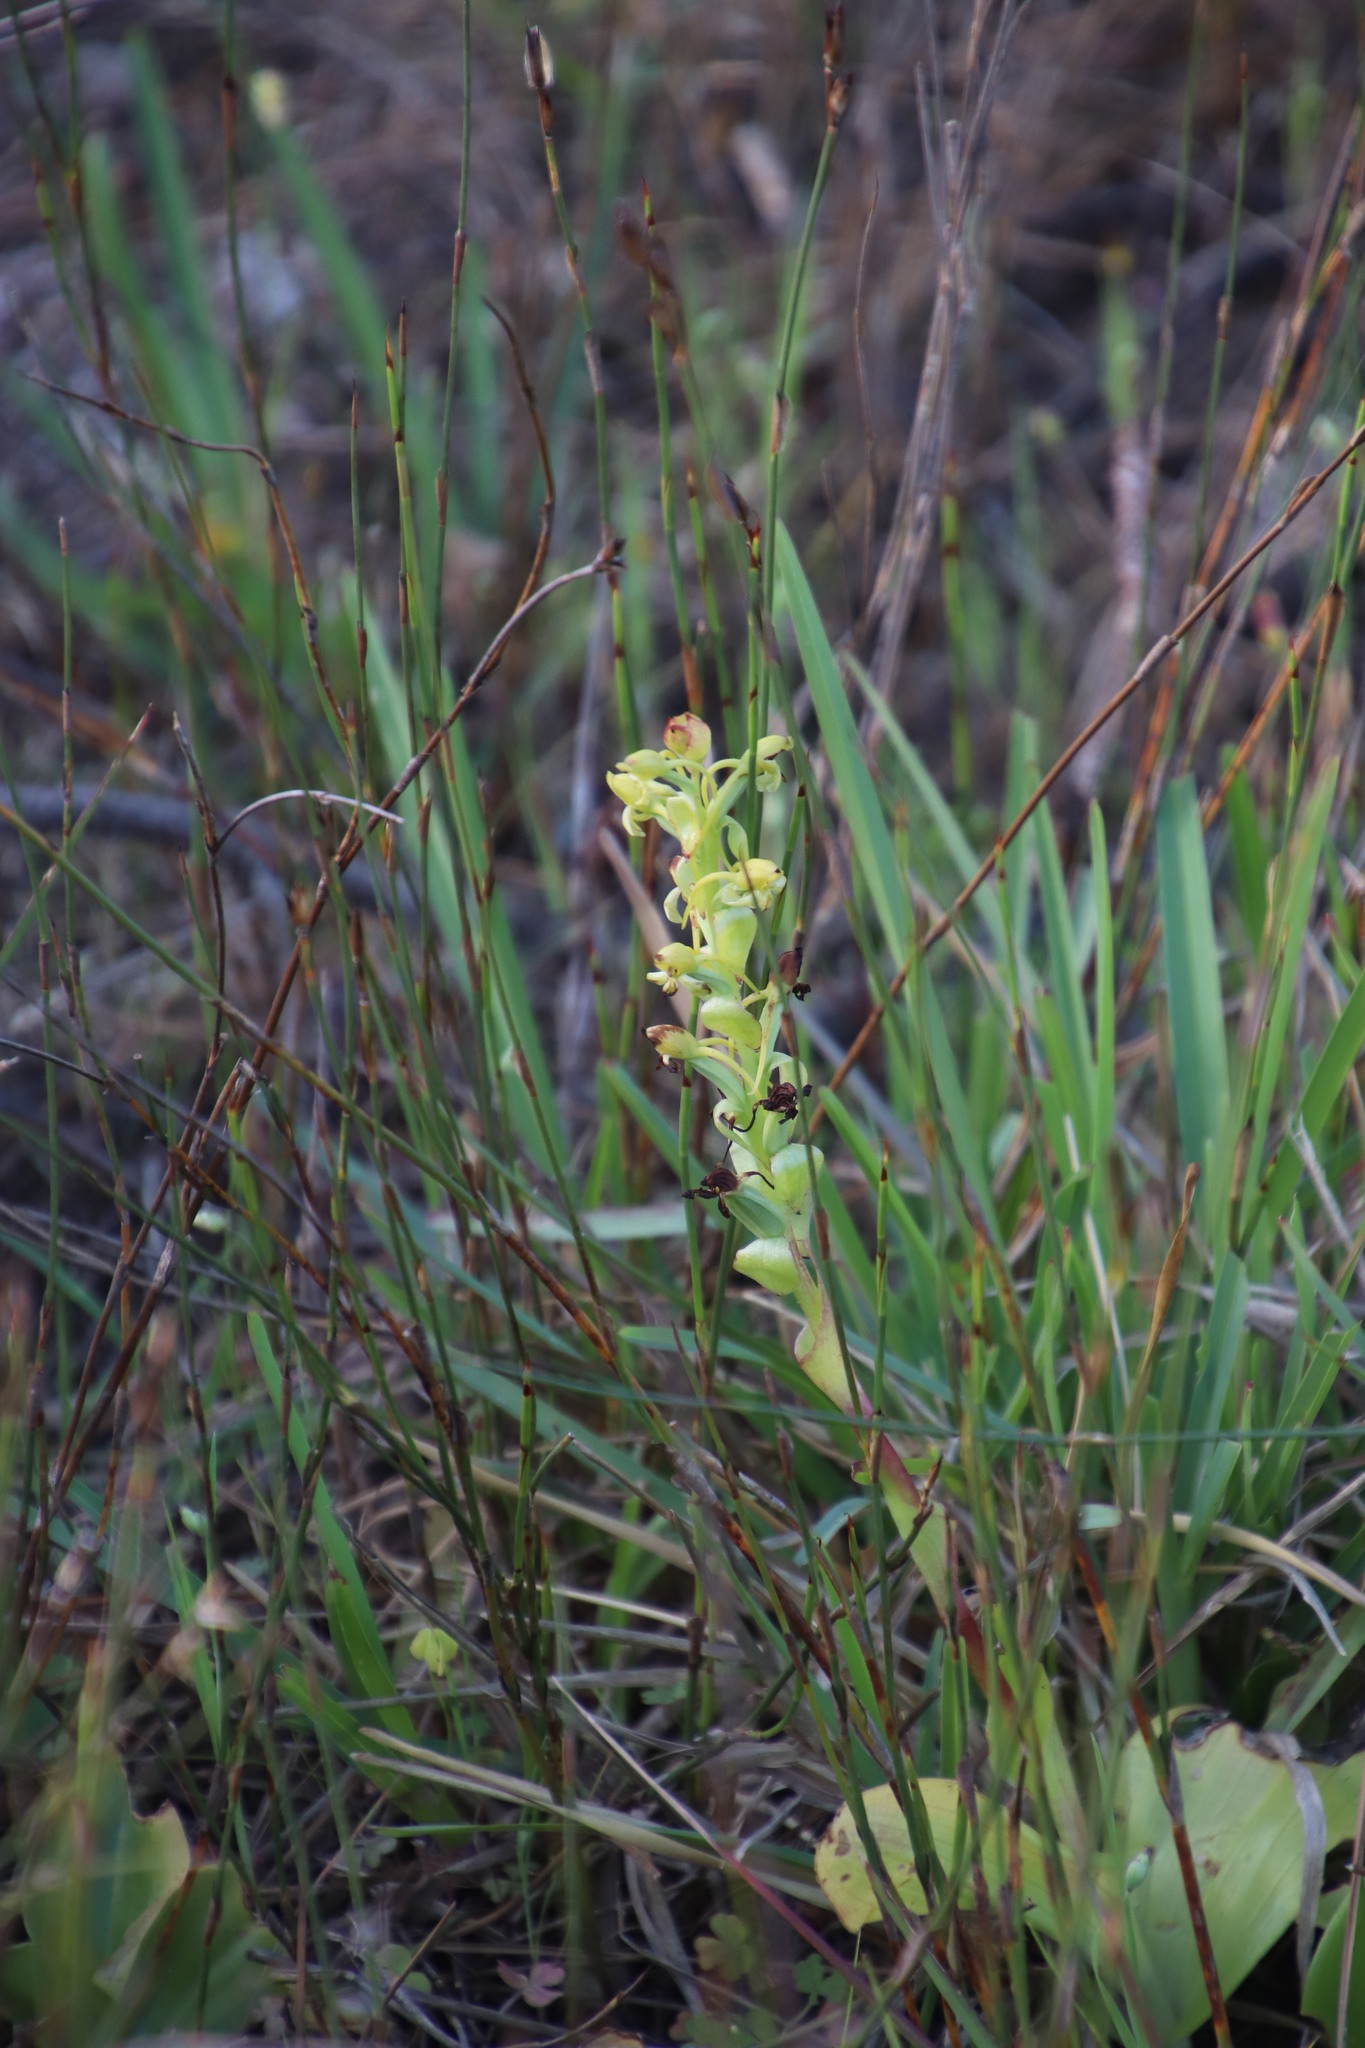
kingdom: Plantae
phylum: Tracheophyta
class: Liliopsida
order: Asparagales
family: Orchidaceae
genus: Satyrium
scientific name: Satyrium odorum
